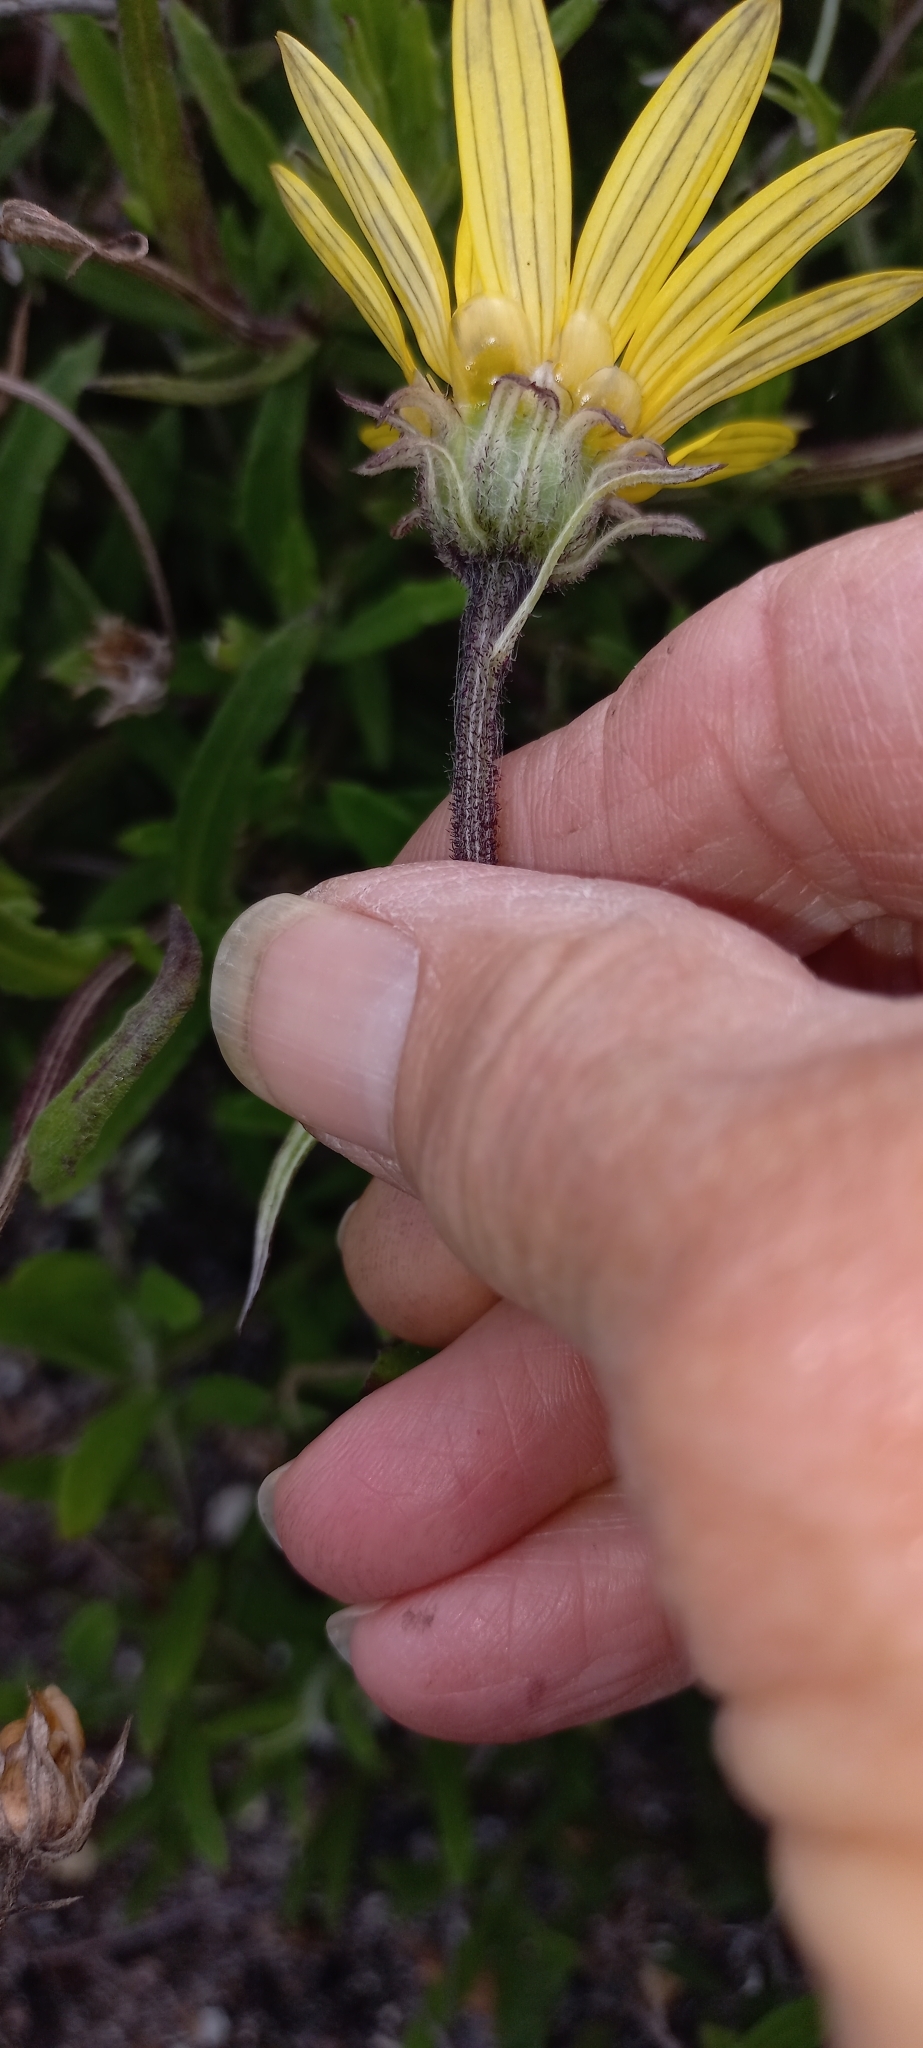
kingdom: Plantae
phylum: Tracheophyta
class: Magnoliopsida
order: Asterales
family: Asteraceae
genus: Arctotis
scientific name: Arctotis scabra
